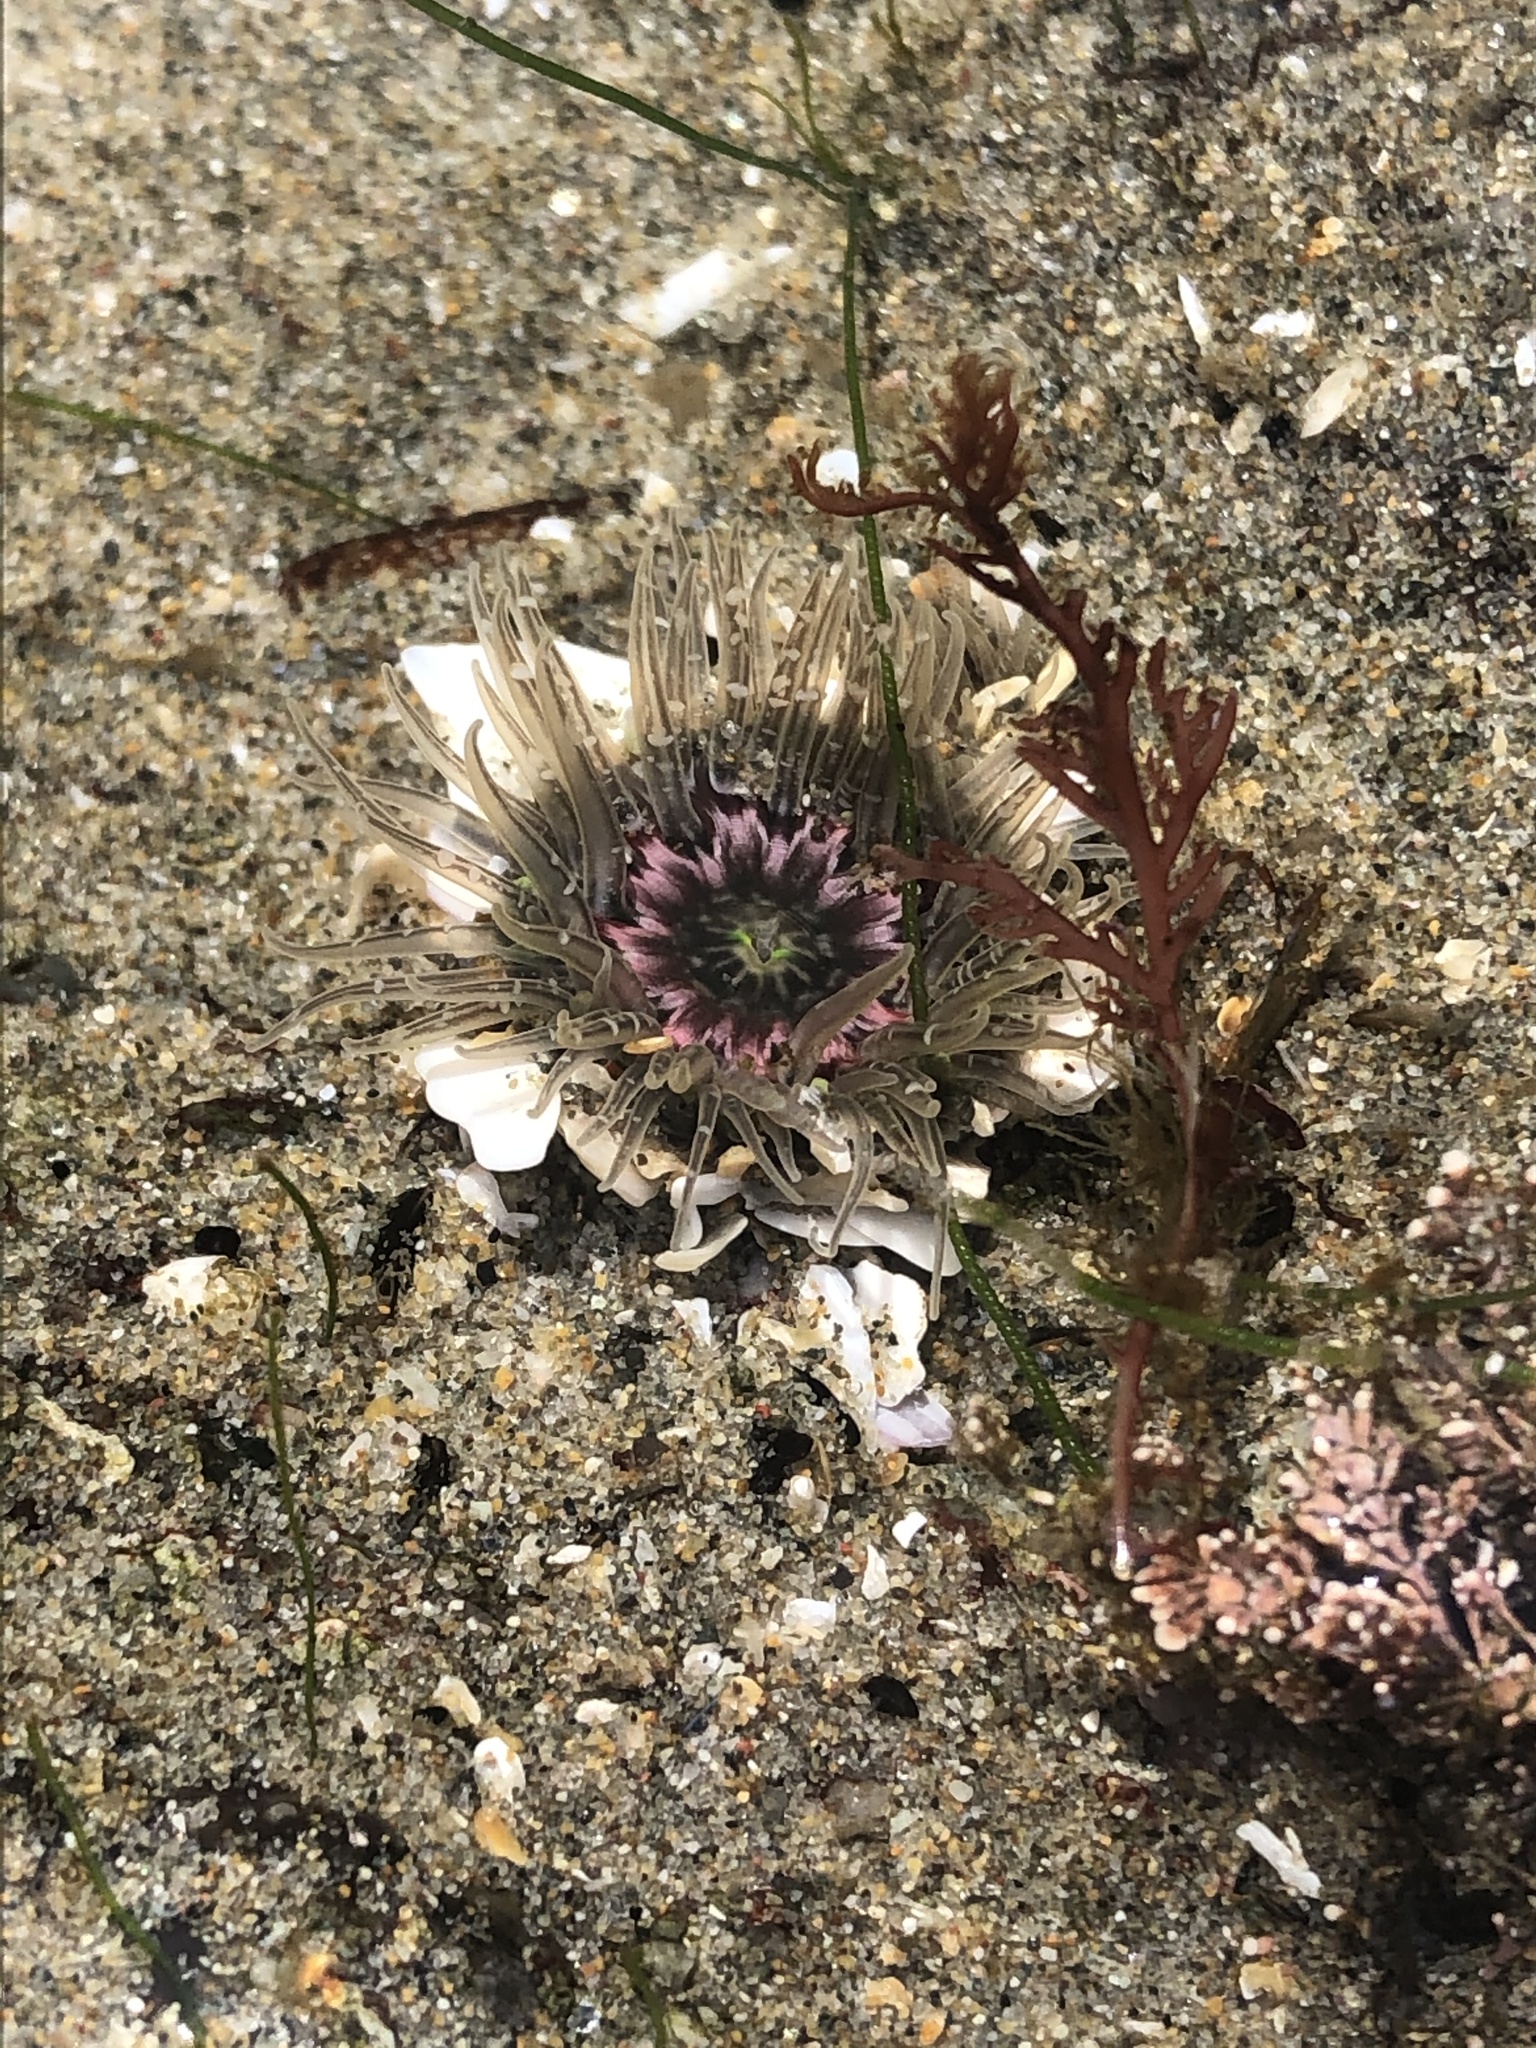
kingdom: Animalia
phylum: Cnidaria
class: Anthozoa
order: Actiniaria
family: Actiniidae
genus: Anthopleura
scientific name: Anthopleura artemisia
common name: Buried sea anemone
